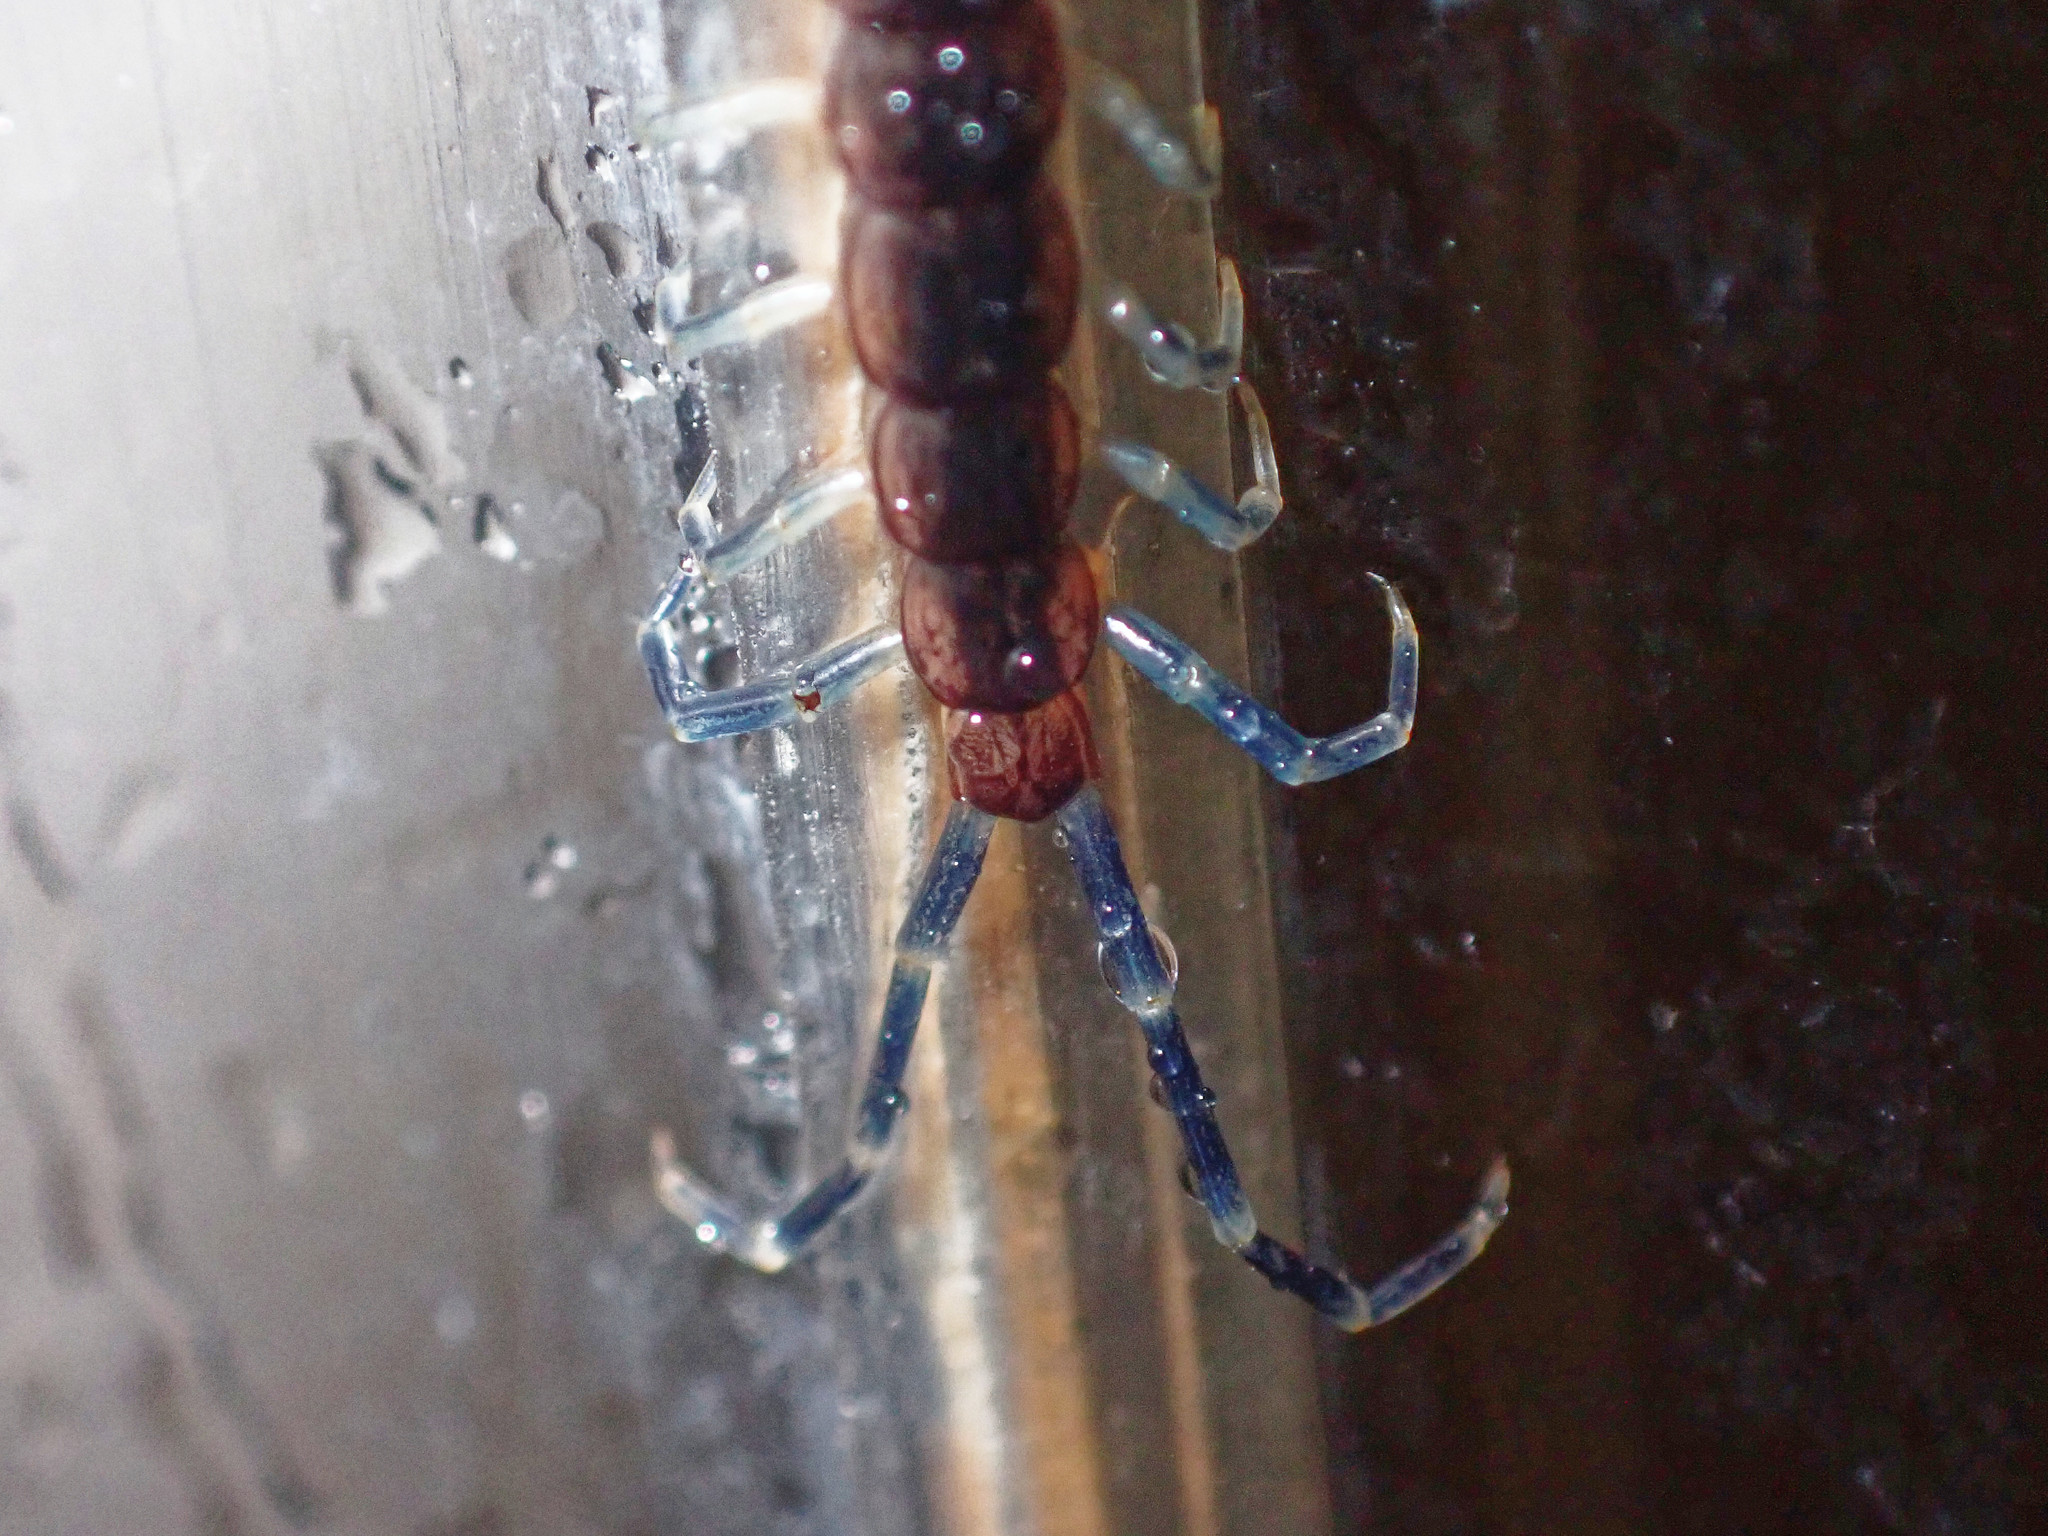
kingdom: Animalia
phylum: Arthropoda
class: Chilopoda
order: Scolopendromorpha
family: Scolopendridae
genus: Otostigmus
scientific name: Otostigmus salticus
